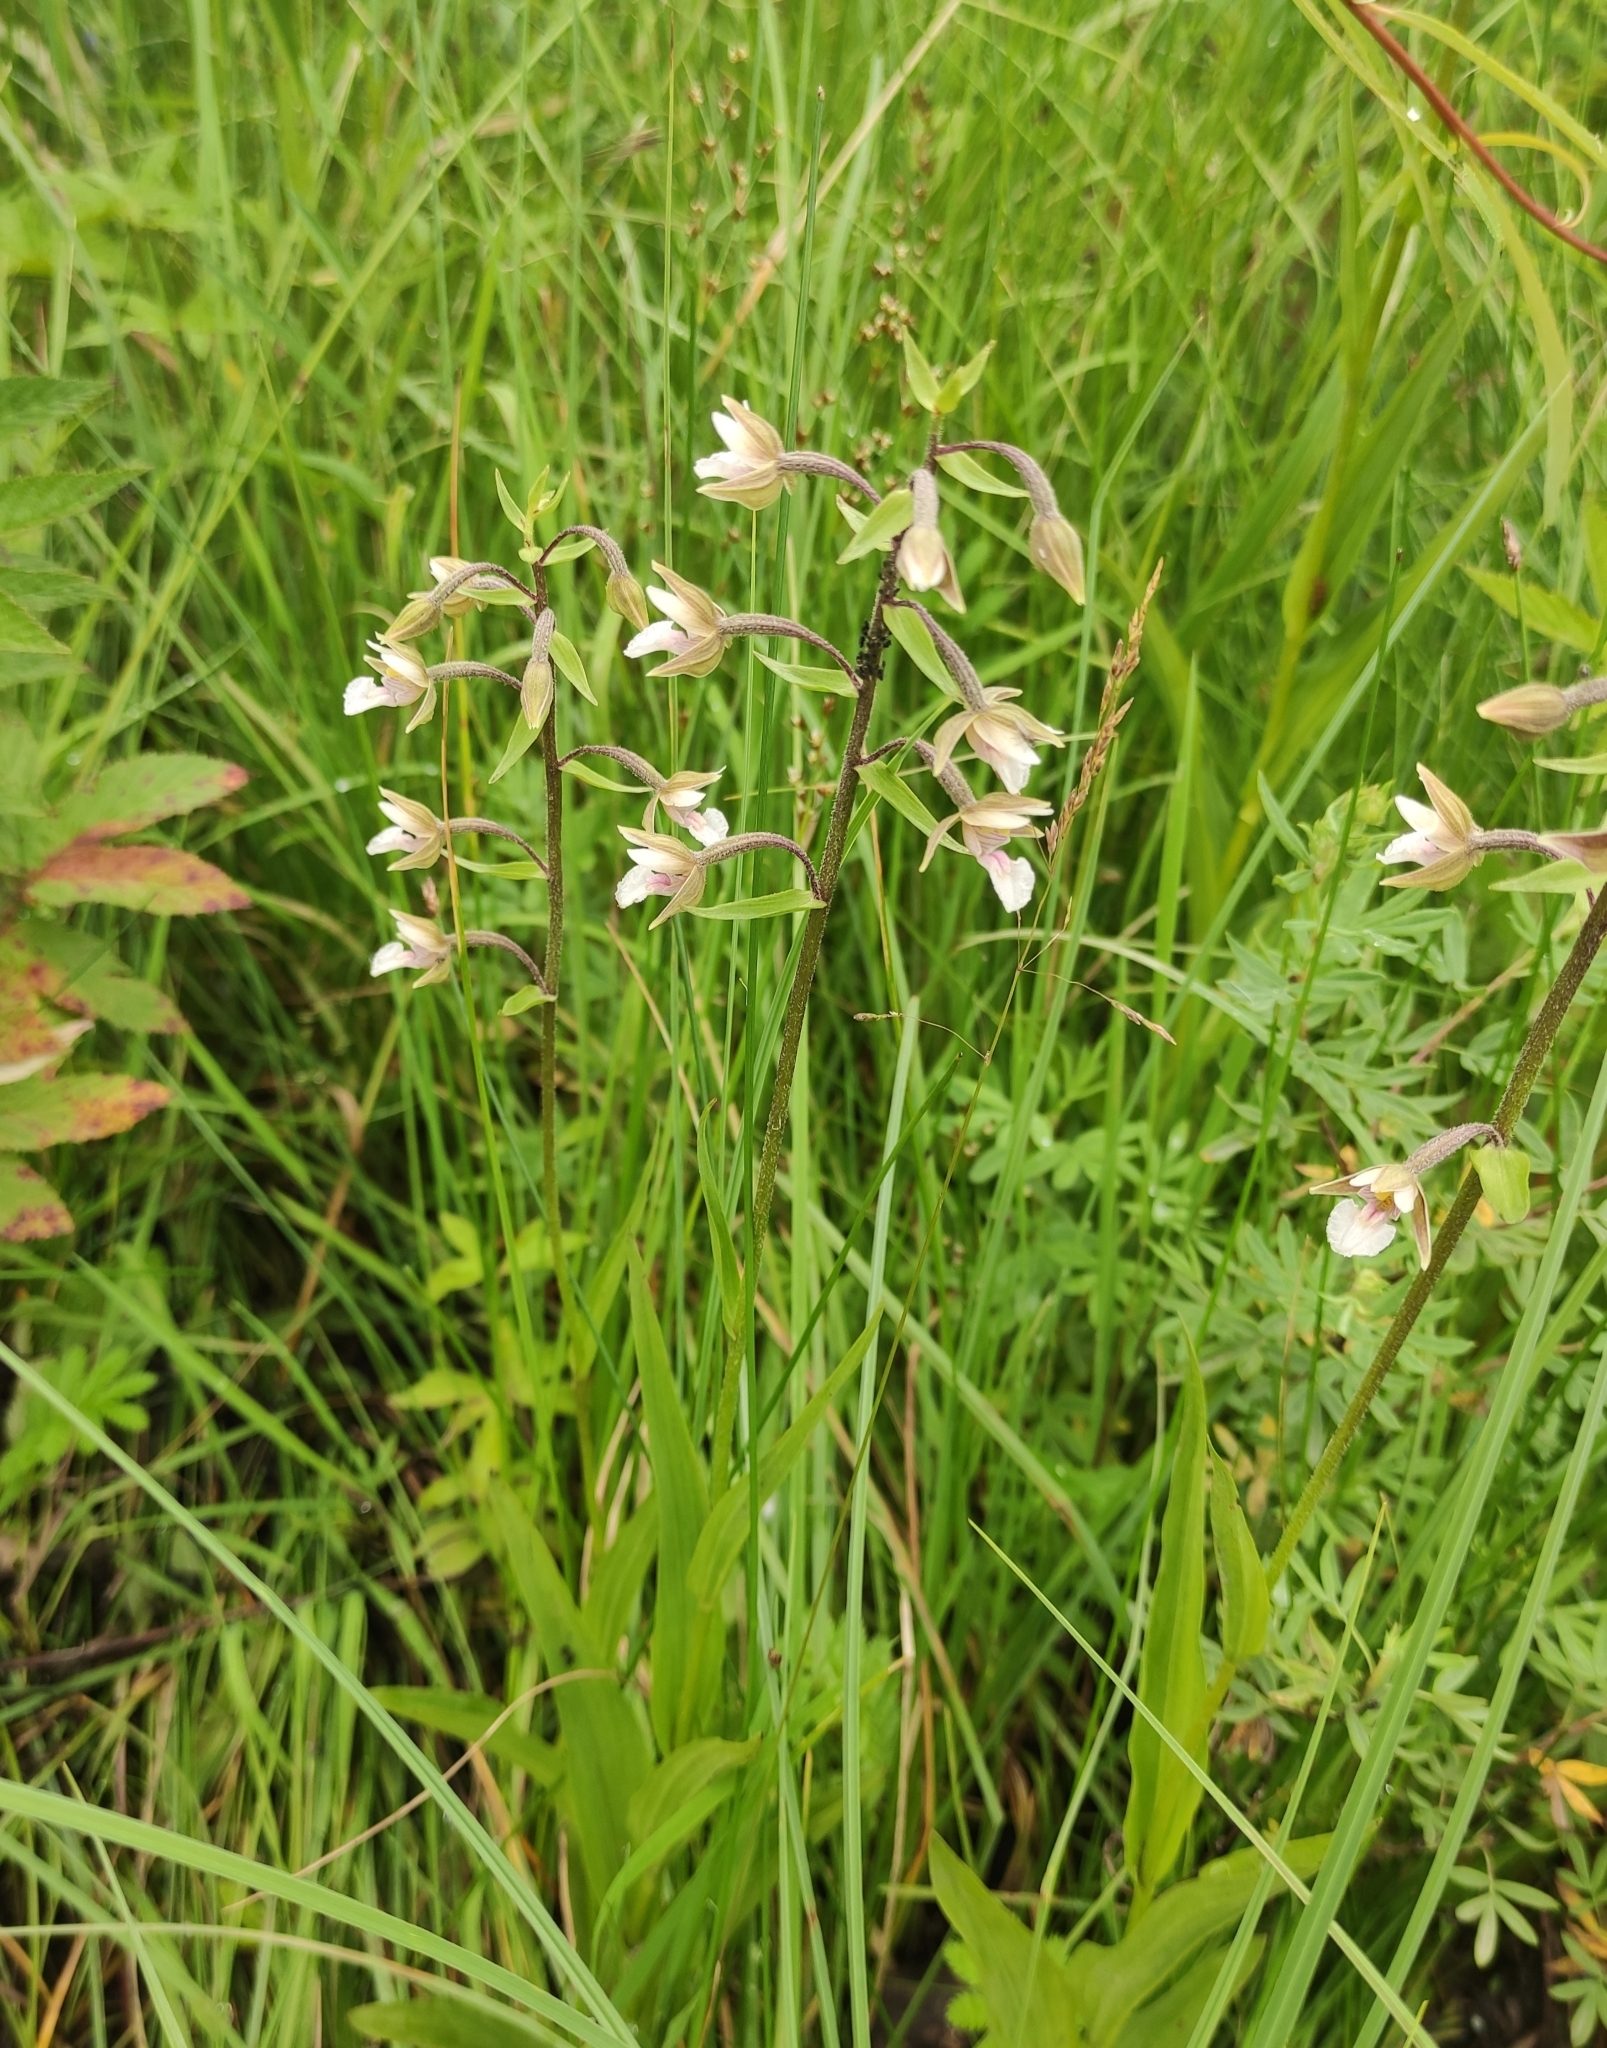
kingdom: Plantae
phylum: Tracheophyta
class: Liliopsida
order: Asparagales
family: Orchidaceae
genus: Epipactis
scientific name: Epipactis palustris
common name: Marsh helleborine
